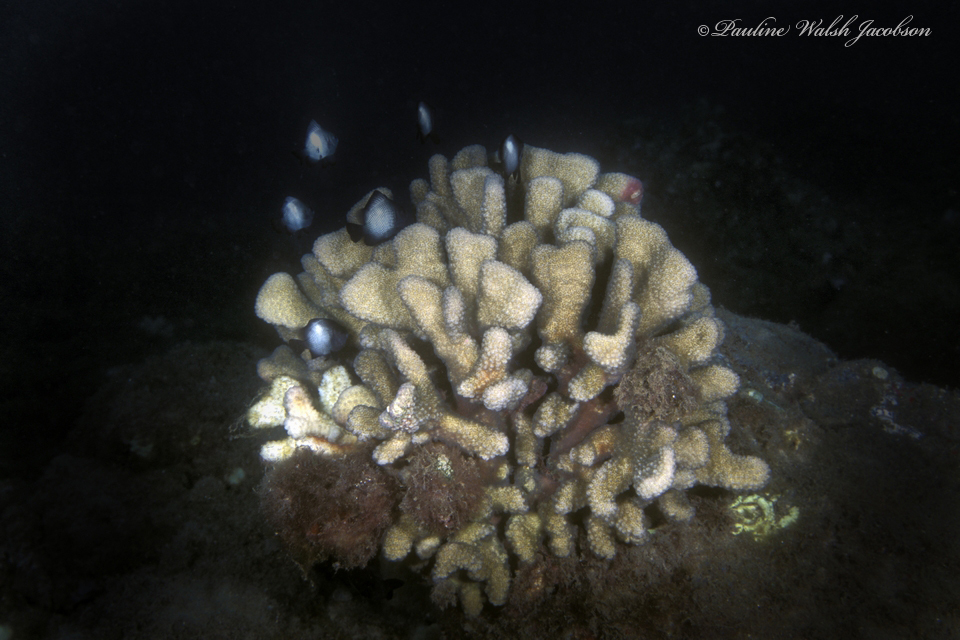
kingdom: Animalia
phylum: Chordata
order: Perciformes
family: Pomacentridae
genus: Dascyllus
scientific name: Dascyllus albisella
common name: Hawaiian dascyllus
